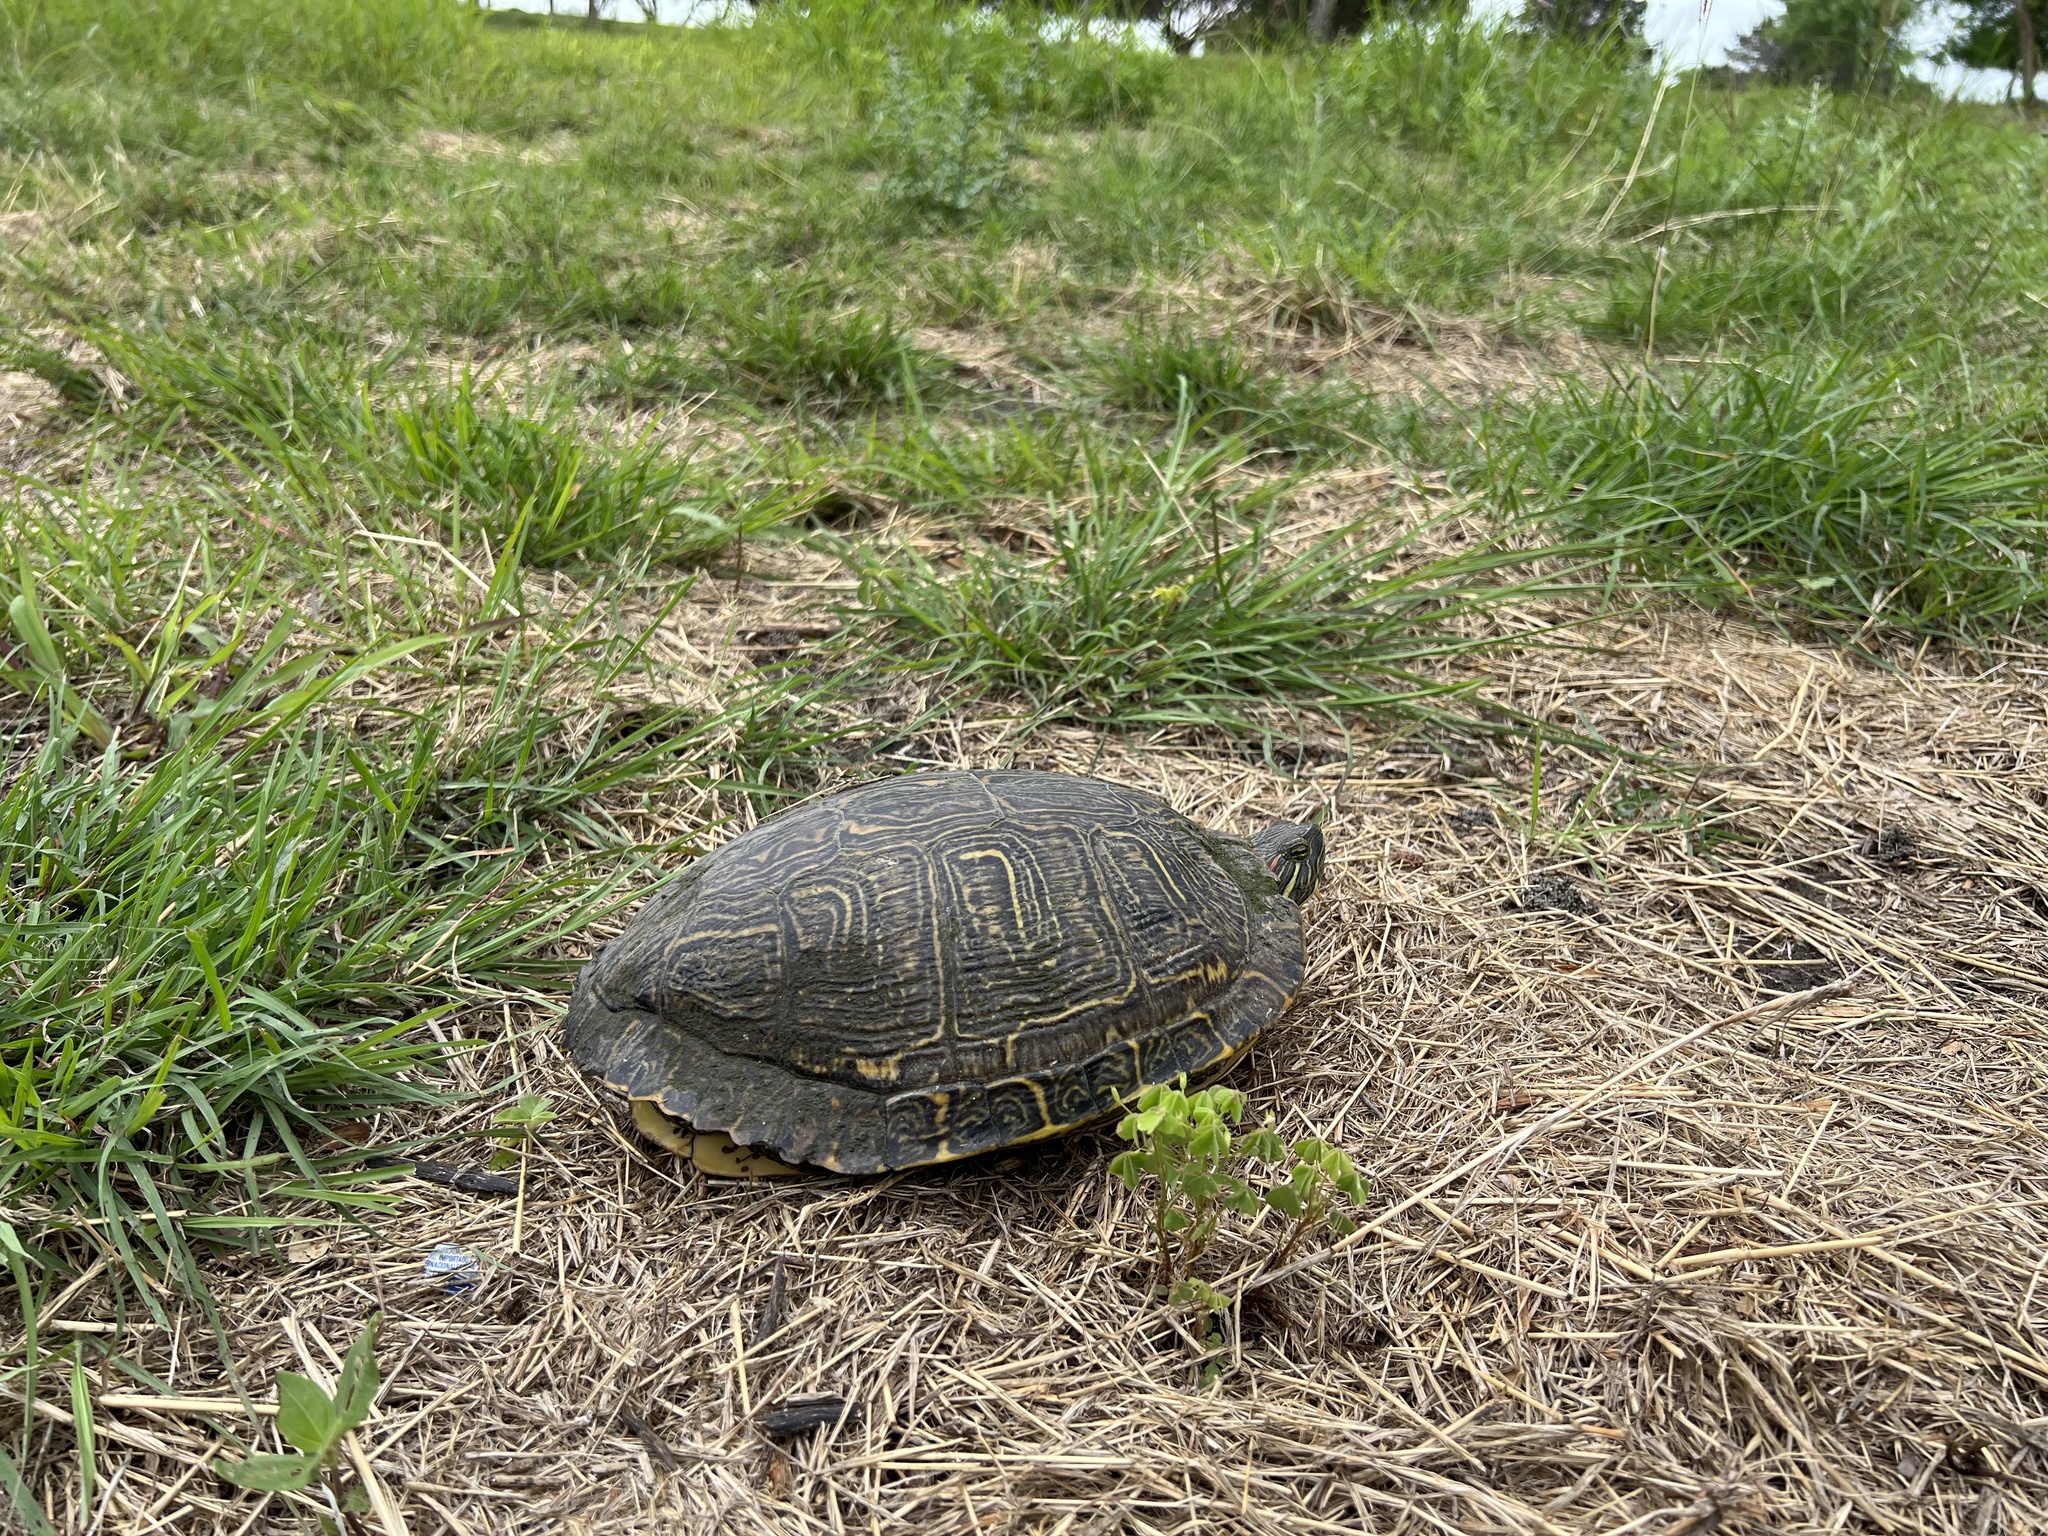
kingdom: Animalia
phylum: Chordata
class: Testudines
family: Emydidae
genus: Trachemys
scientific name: Trachemys scripta
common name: Slider
